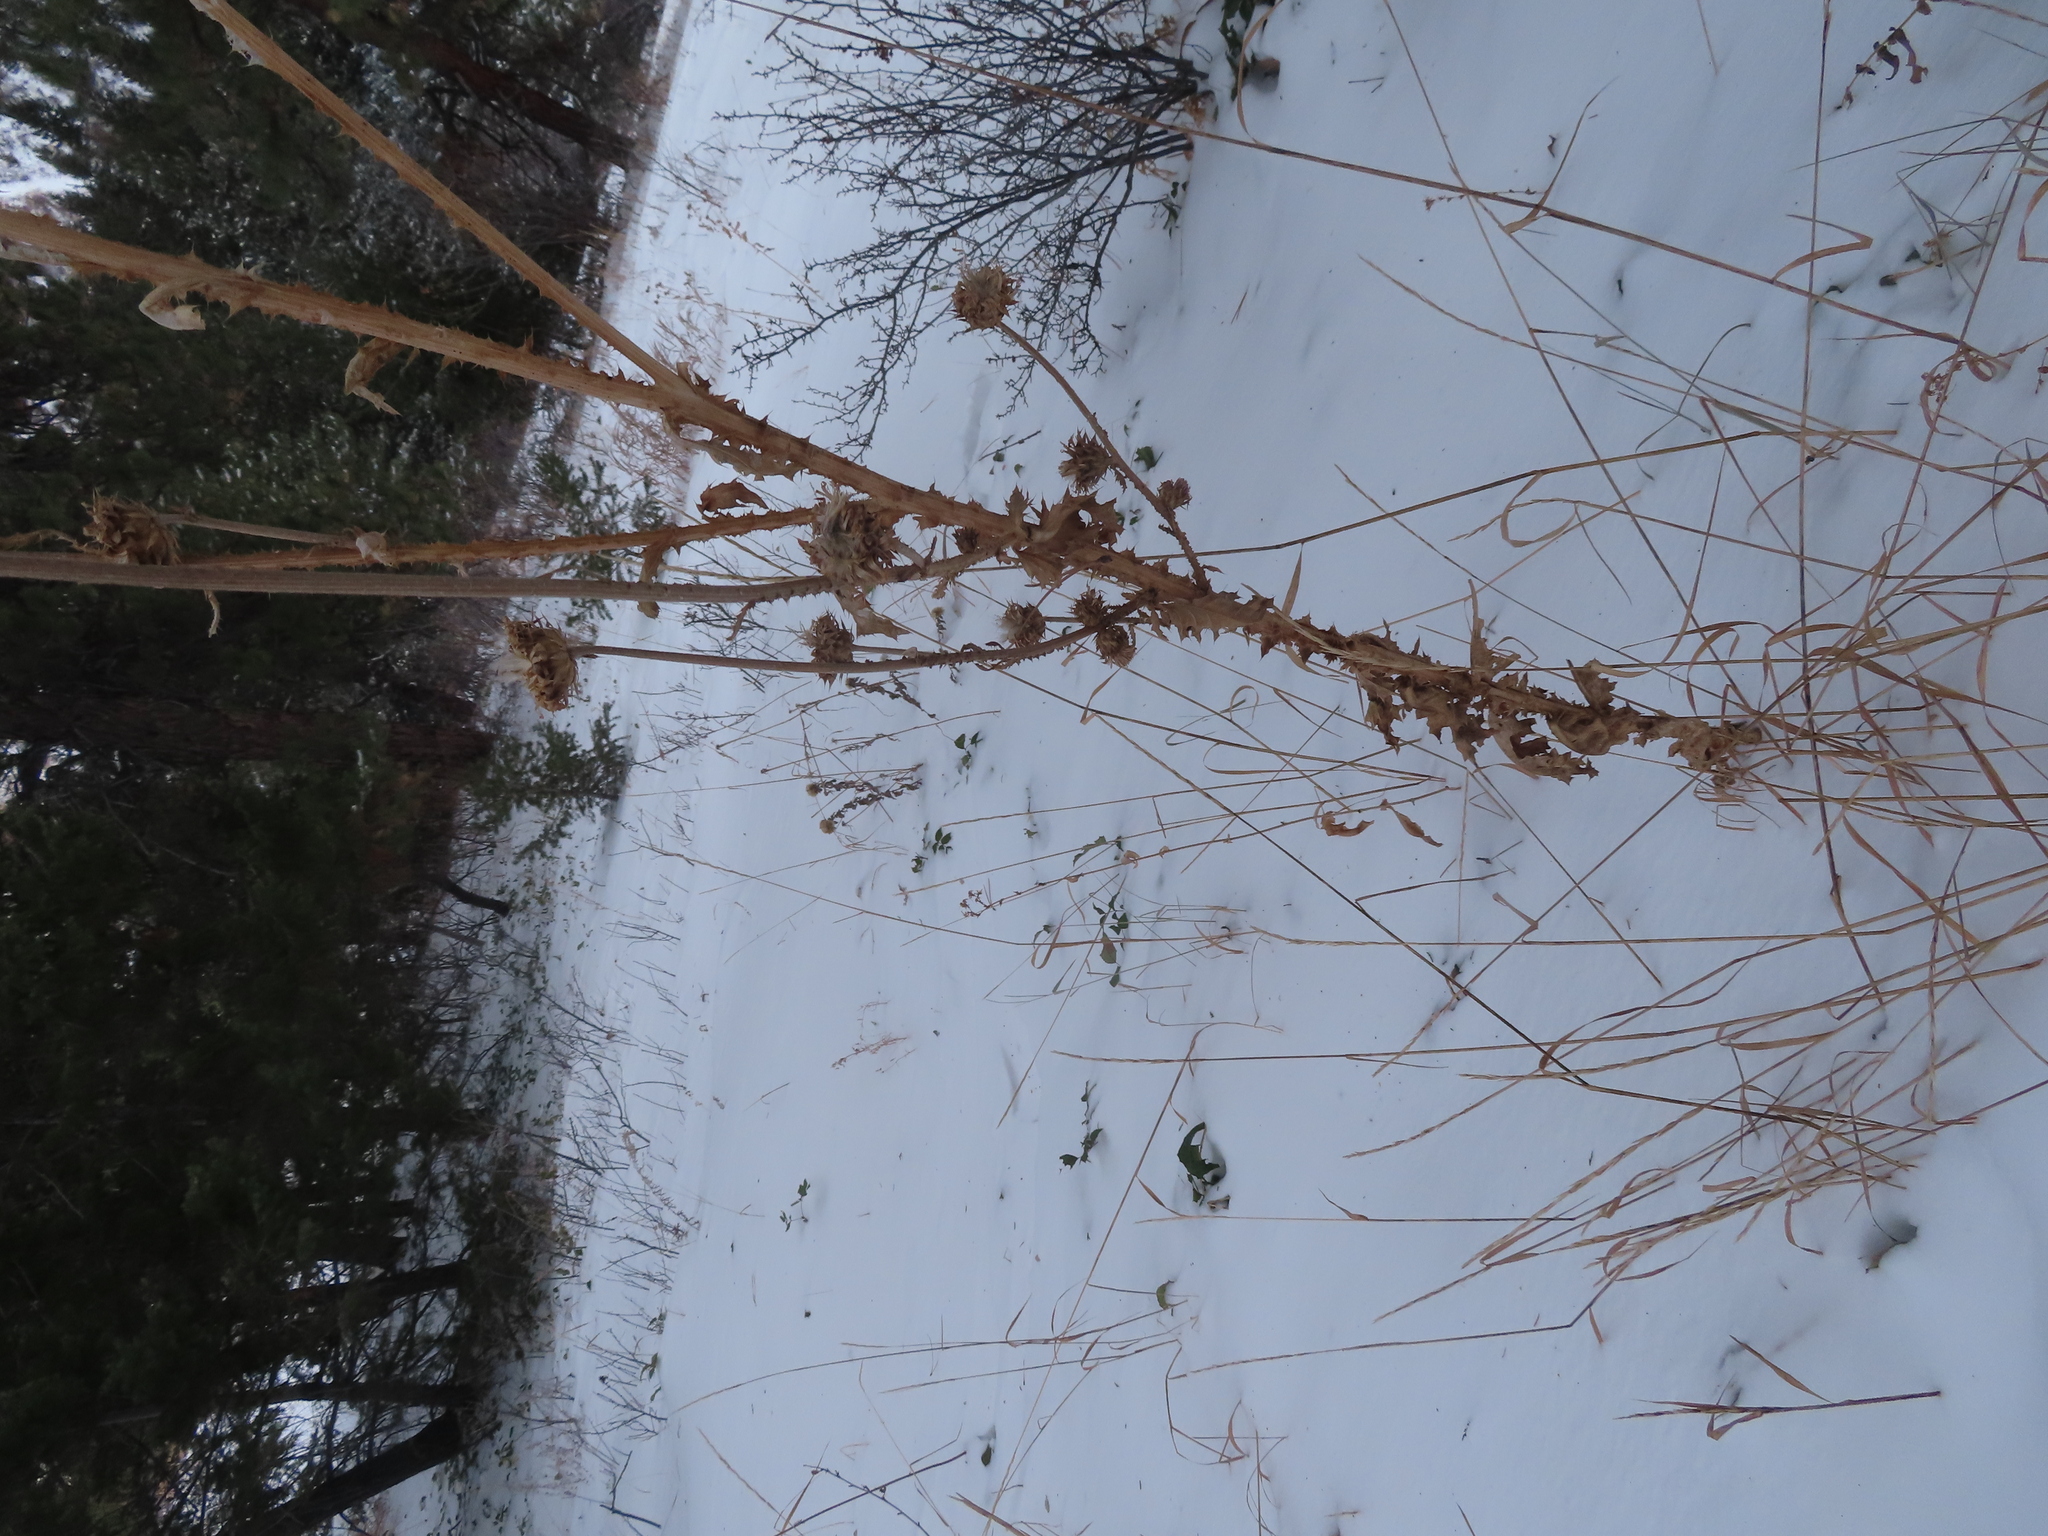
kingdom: Plantae
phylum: Tracheophyta
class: Magnoliopsida
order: Asterales
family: Asteraceae
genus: Carduus
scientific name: Carduus nutans
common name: Musk thistle
